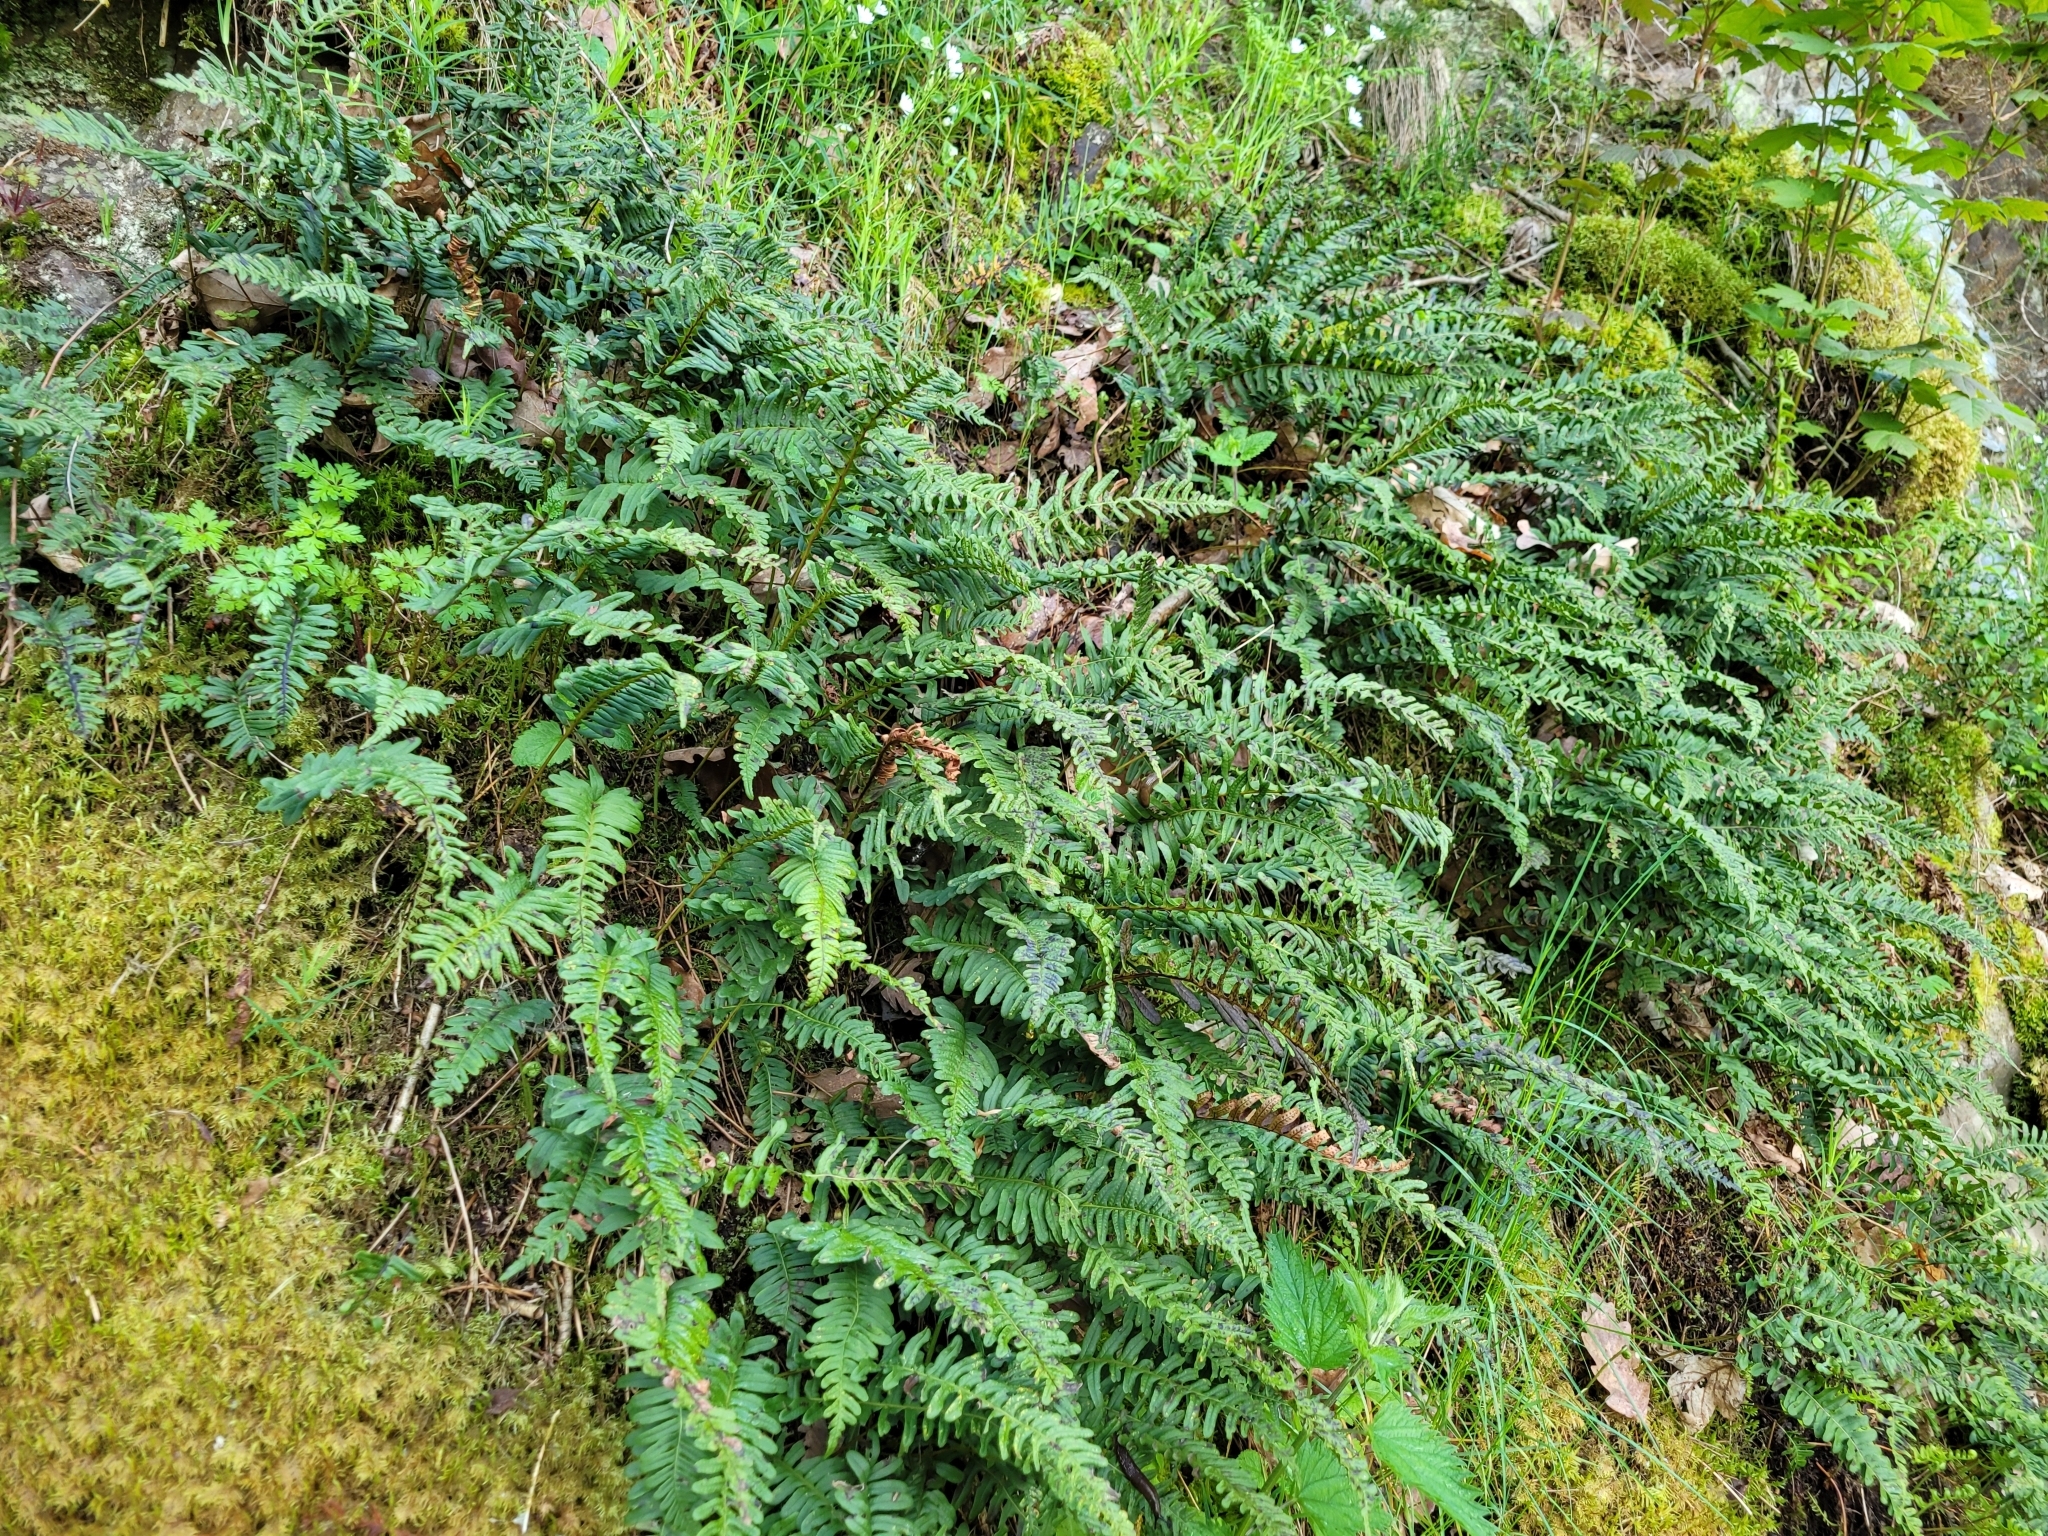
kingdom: Plantae
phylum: Tracheophyta
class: Polypodiopsida
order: Polypodiales
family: Polypodiaceae
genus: Polypodium
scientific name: Polypodium vulgare
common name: Common polypody
